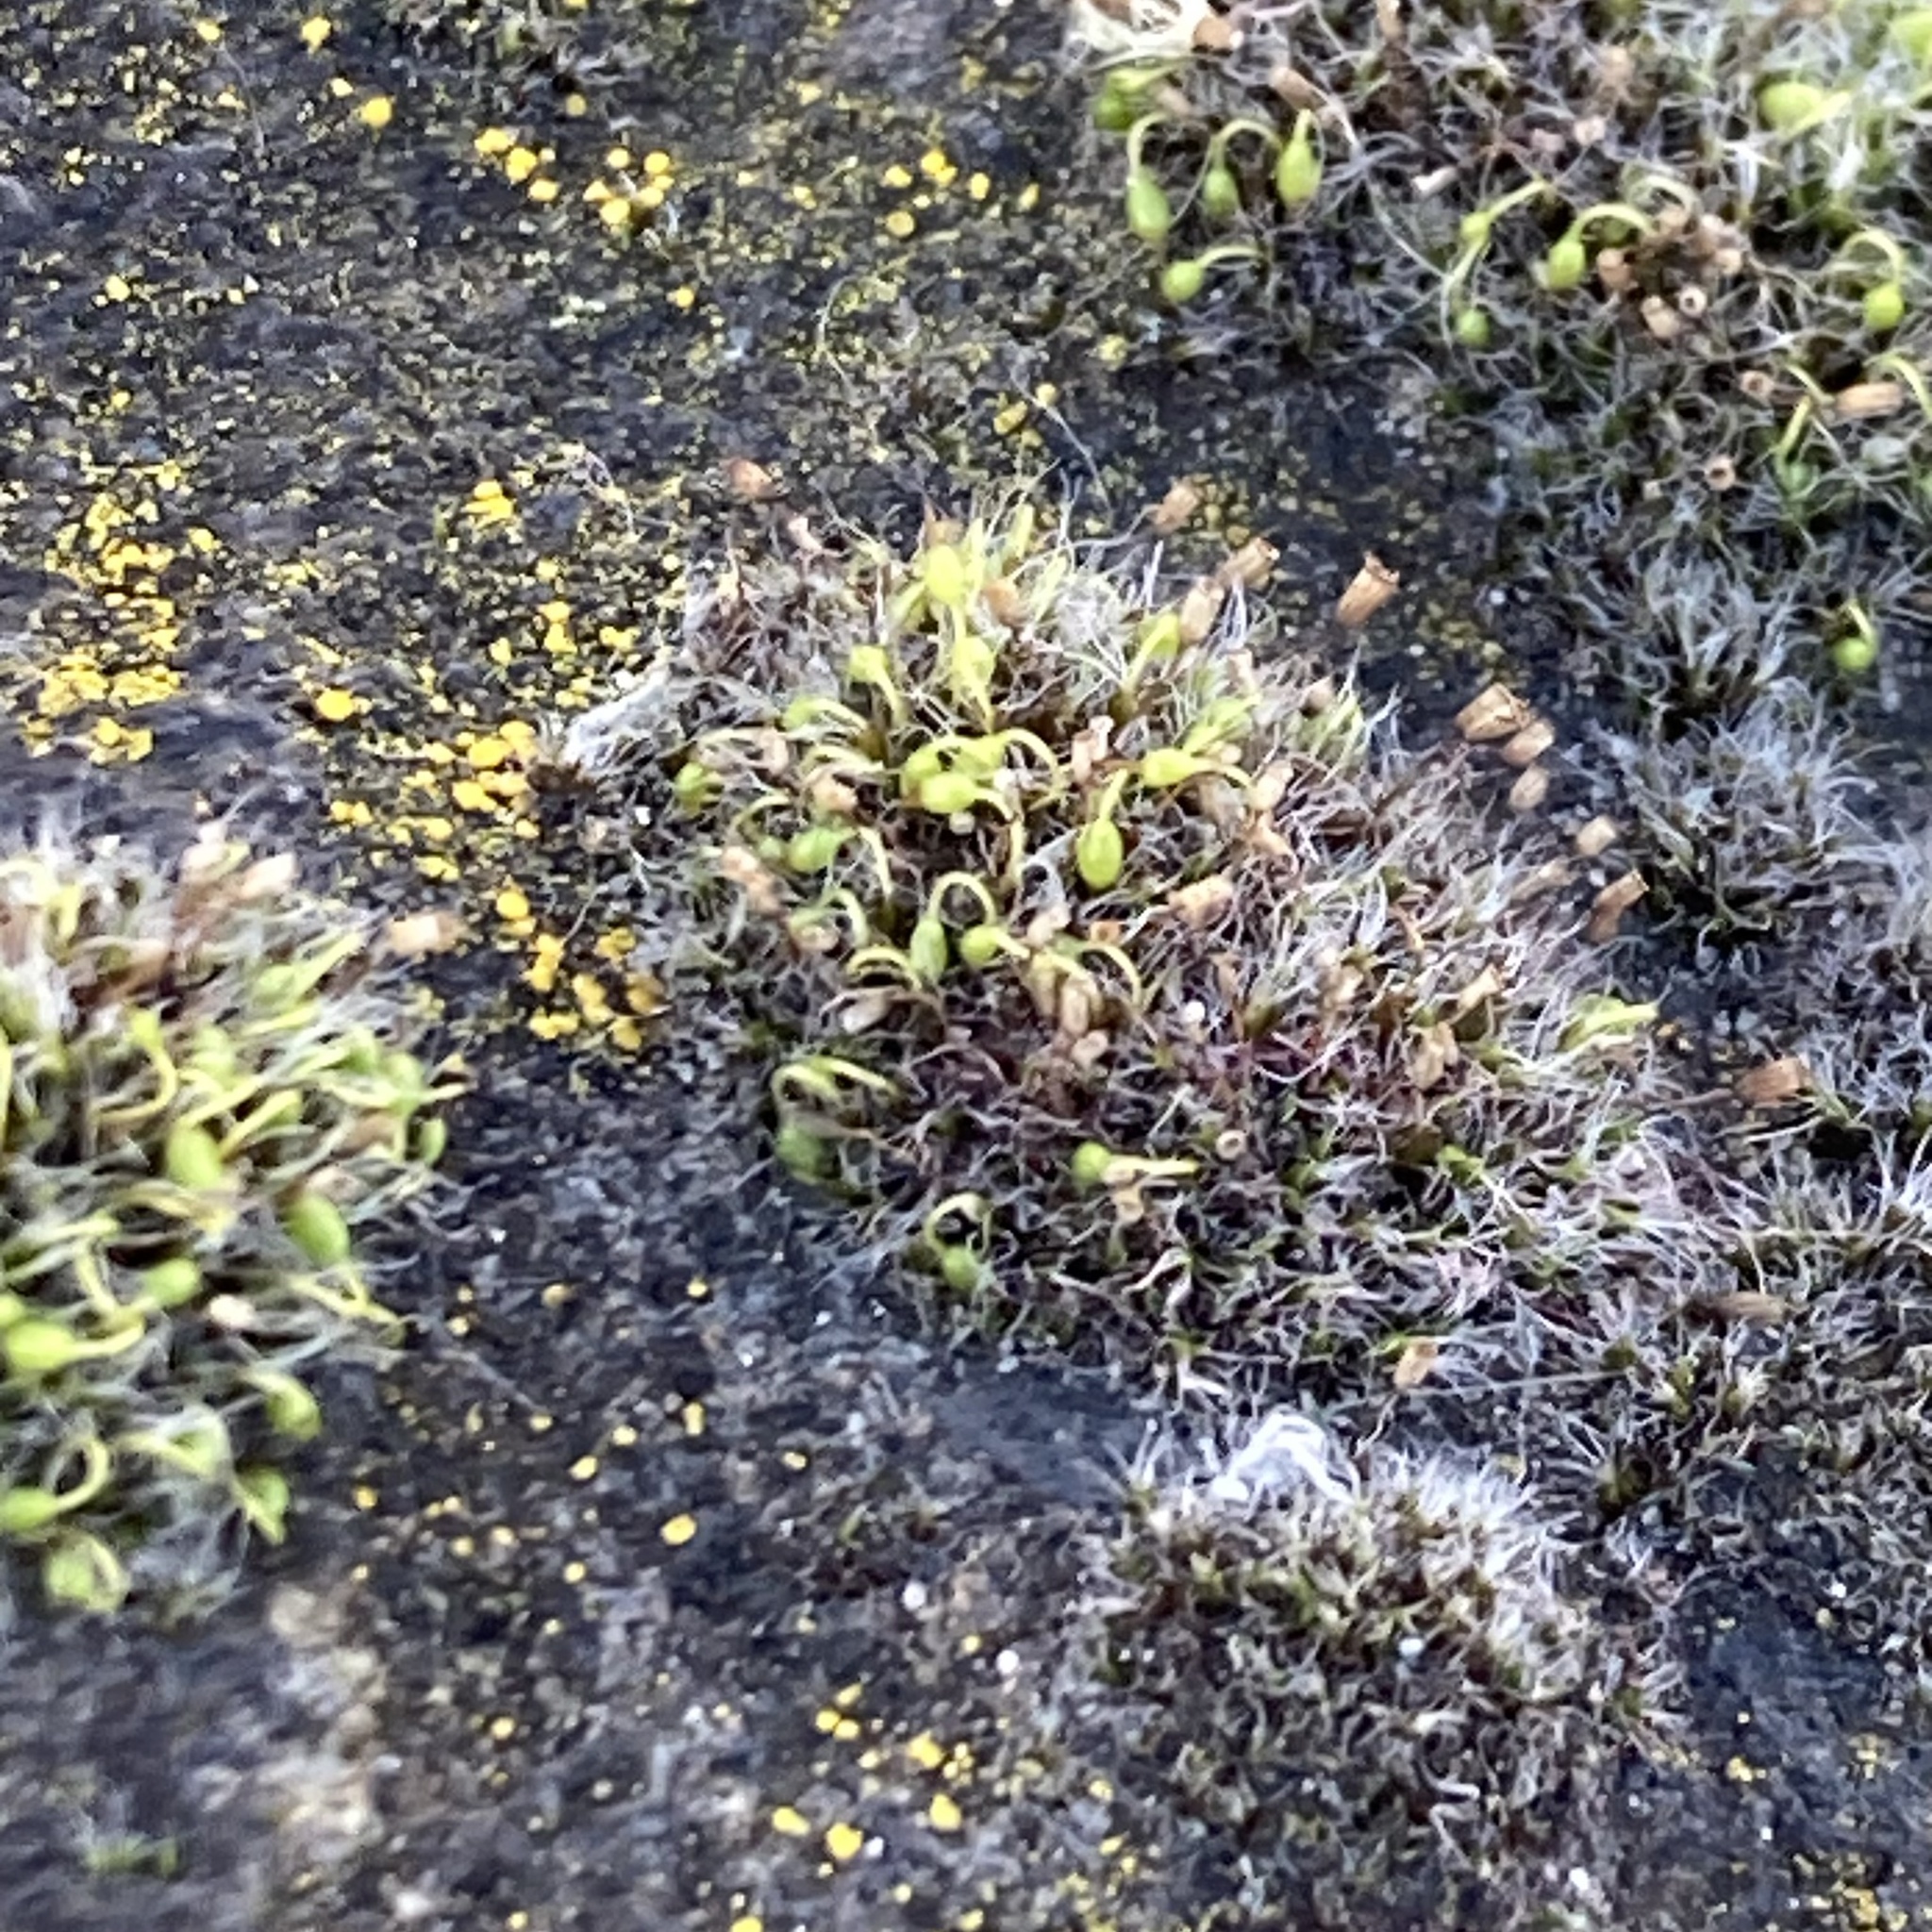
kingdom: Plantae
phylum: Bryophyta
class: Bryopsida
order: Grimmiales
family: Grimmiaceae
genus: Grimmia
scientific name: Grimmia pulvinata
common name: Grey-cushioned grimmia
